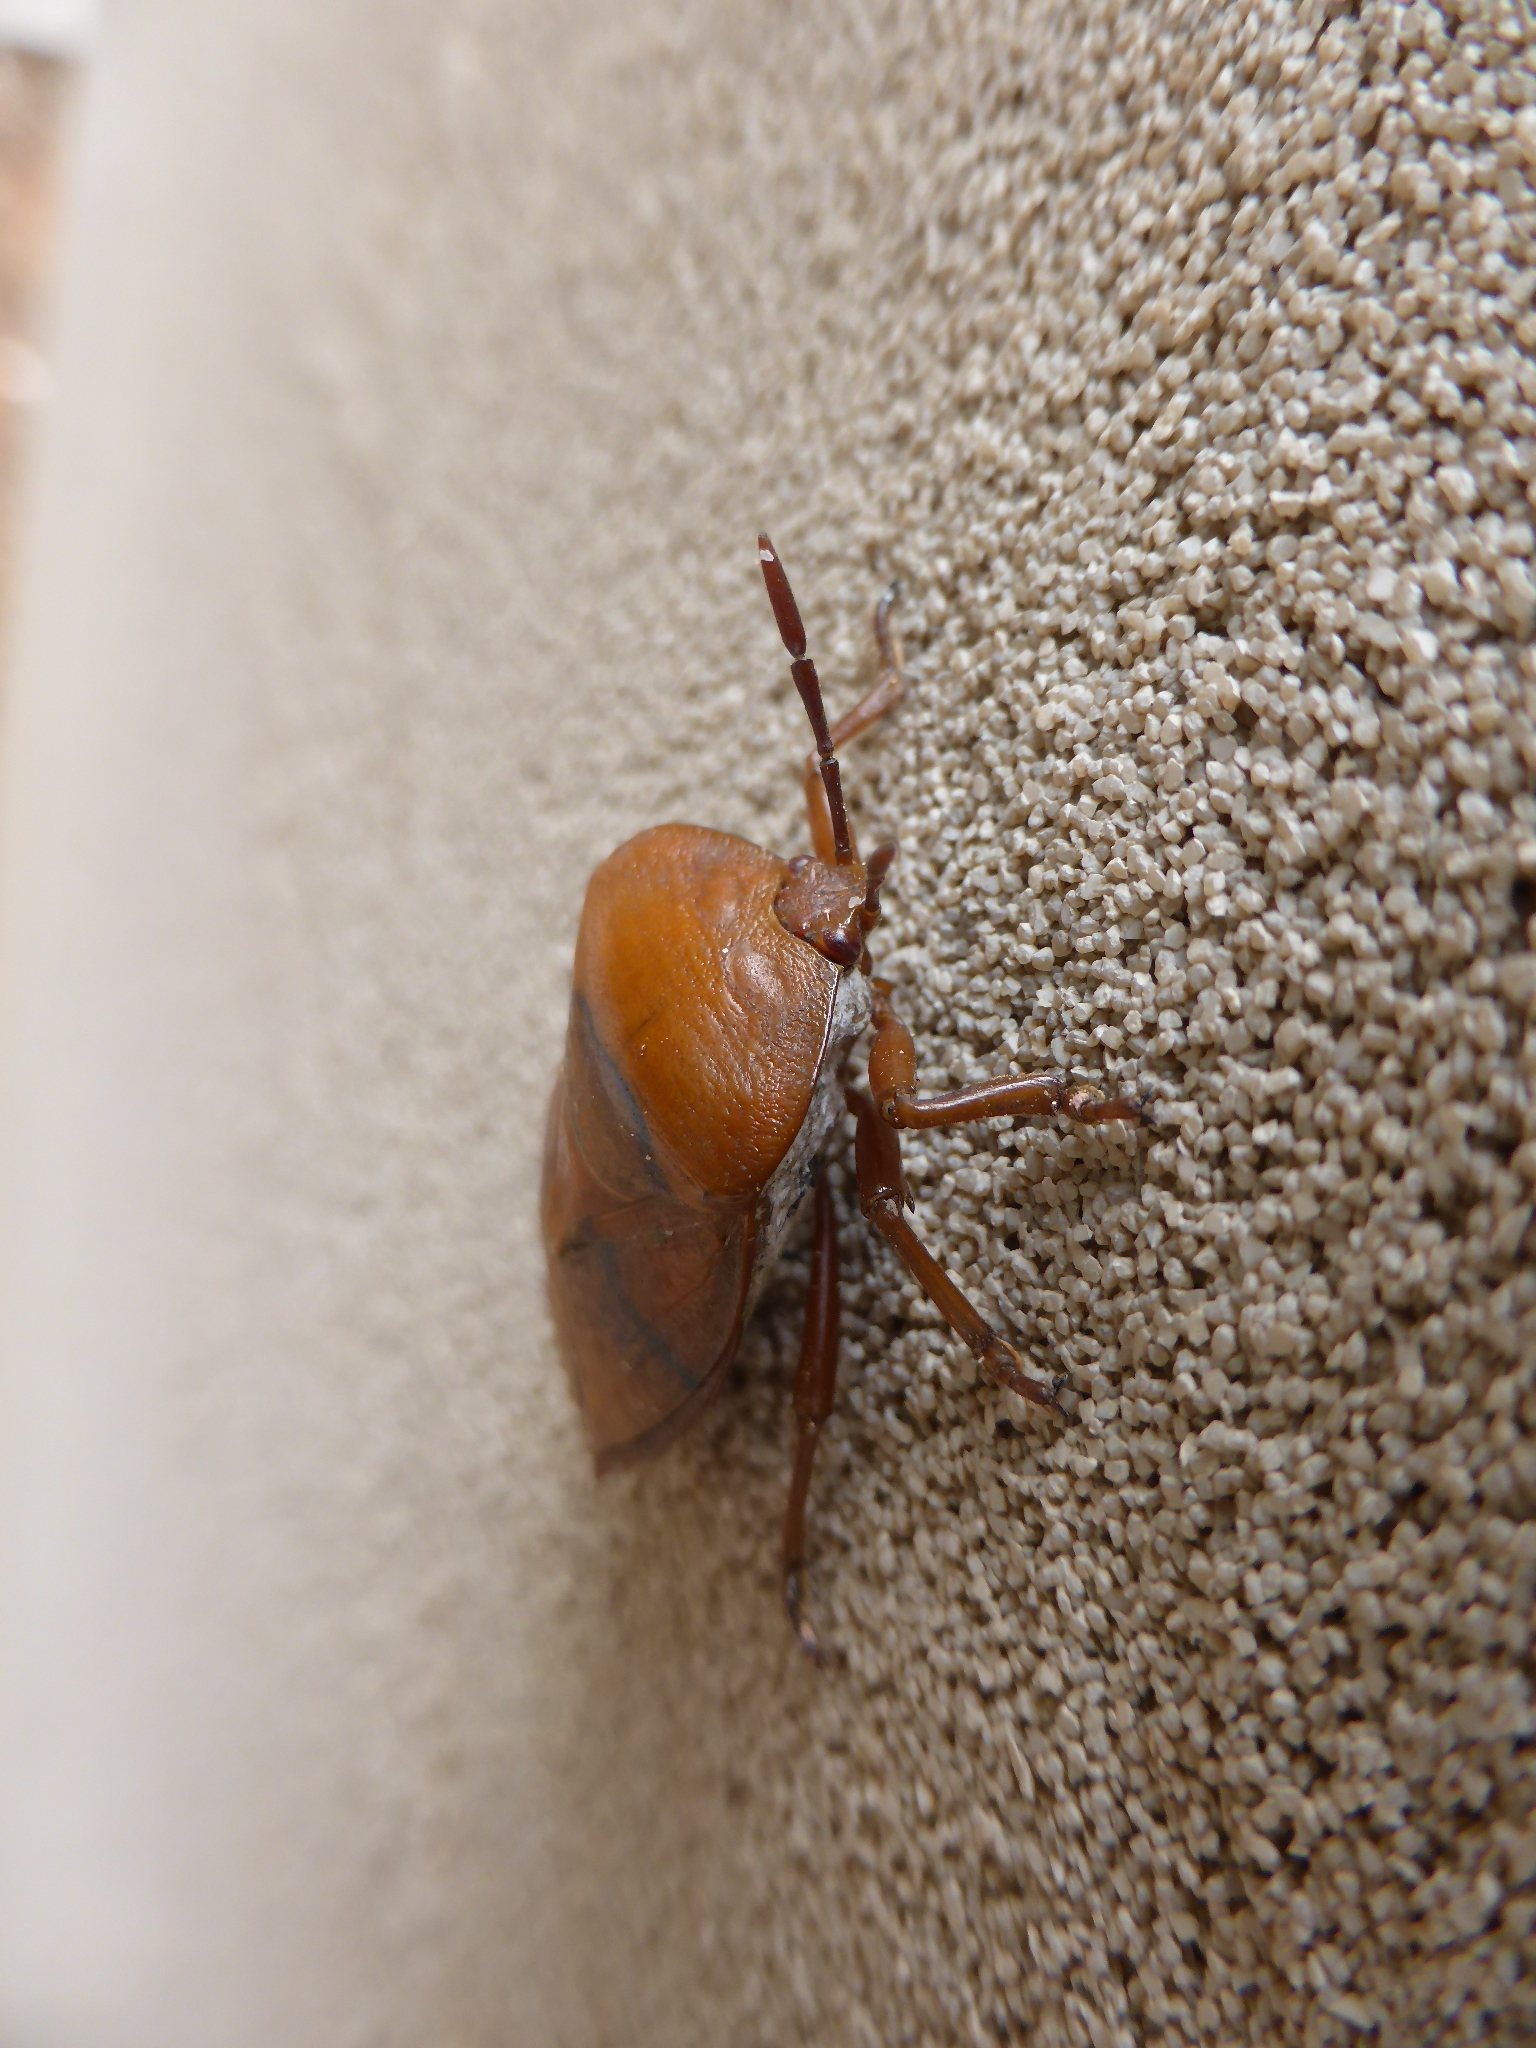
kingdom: Animalia
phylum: Arthropoda
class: Insecta
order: Hemiptera
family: Tessaratomidae
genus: Tessaratoma
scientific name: Tessaratoma papillosa
